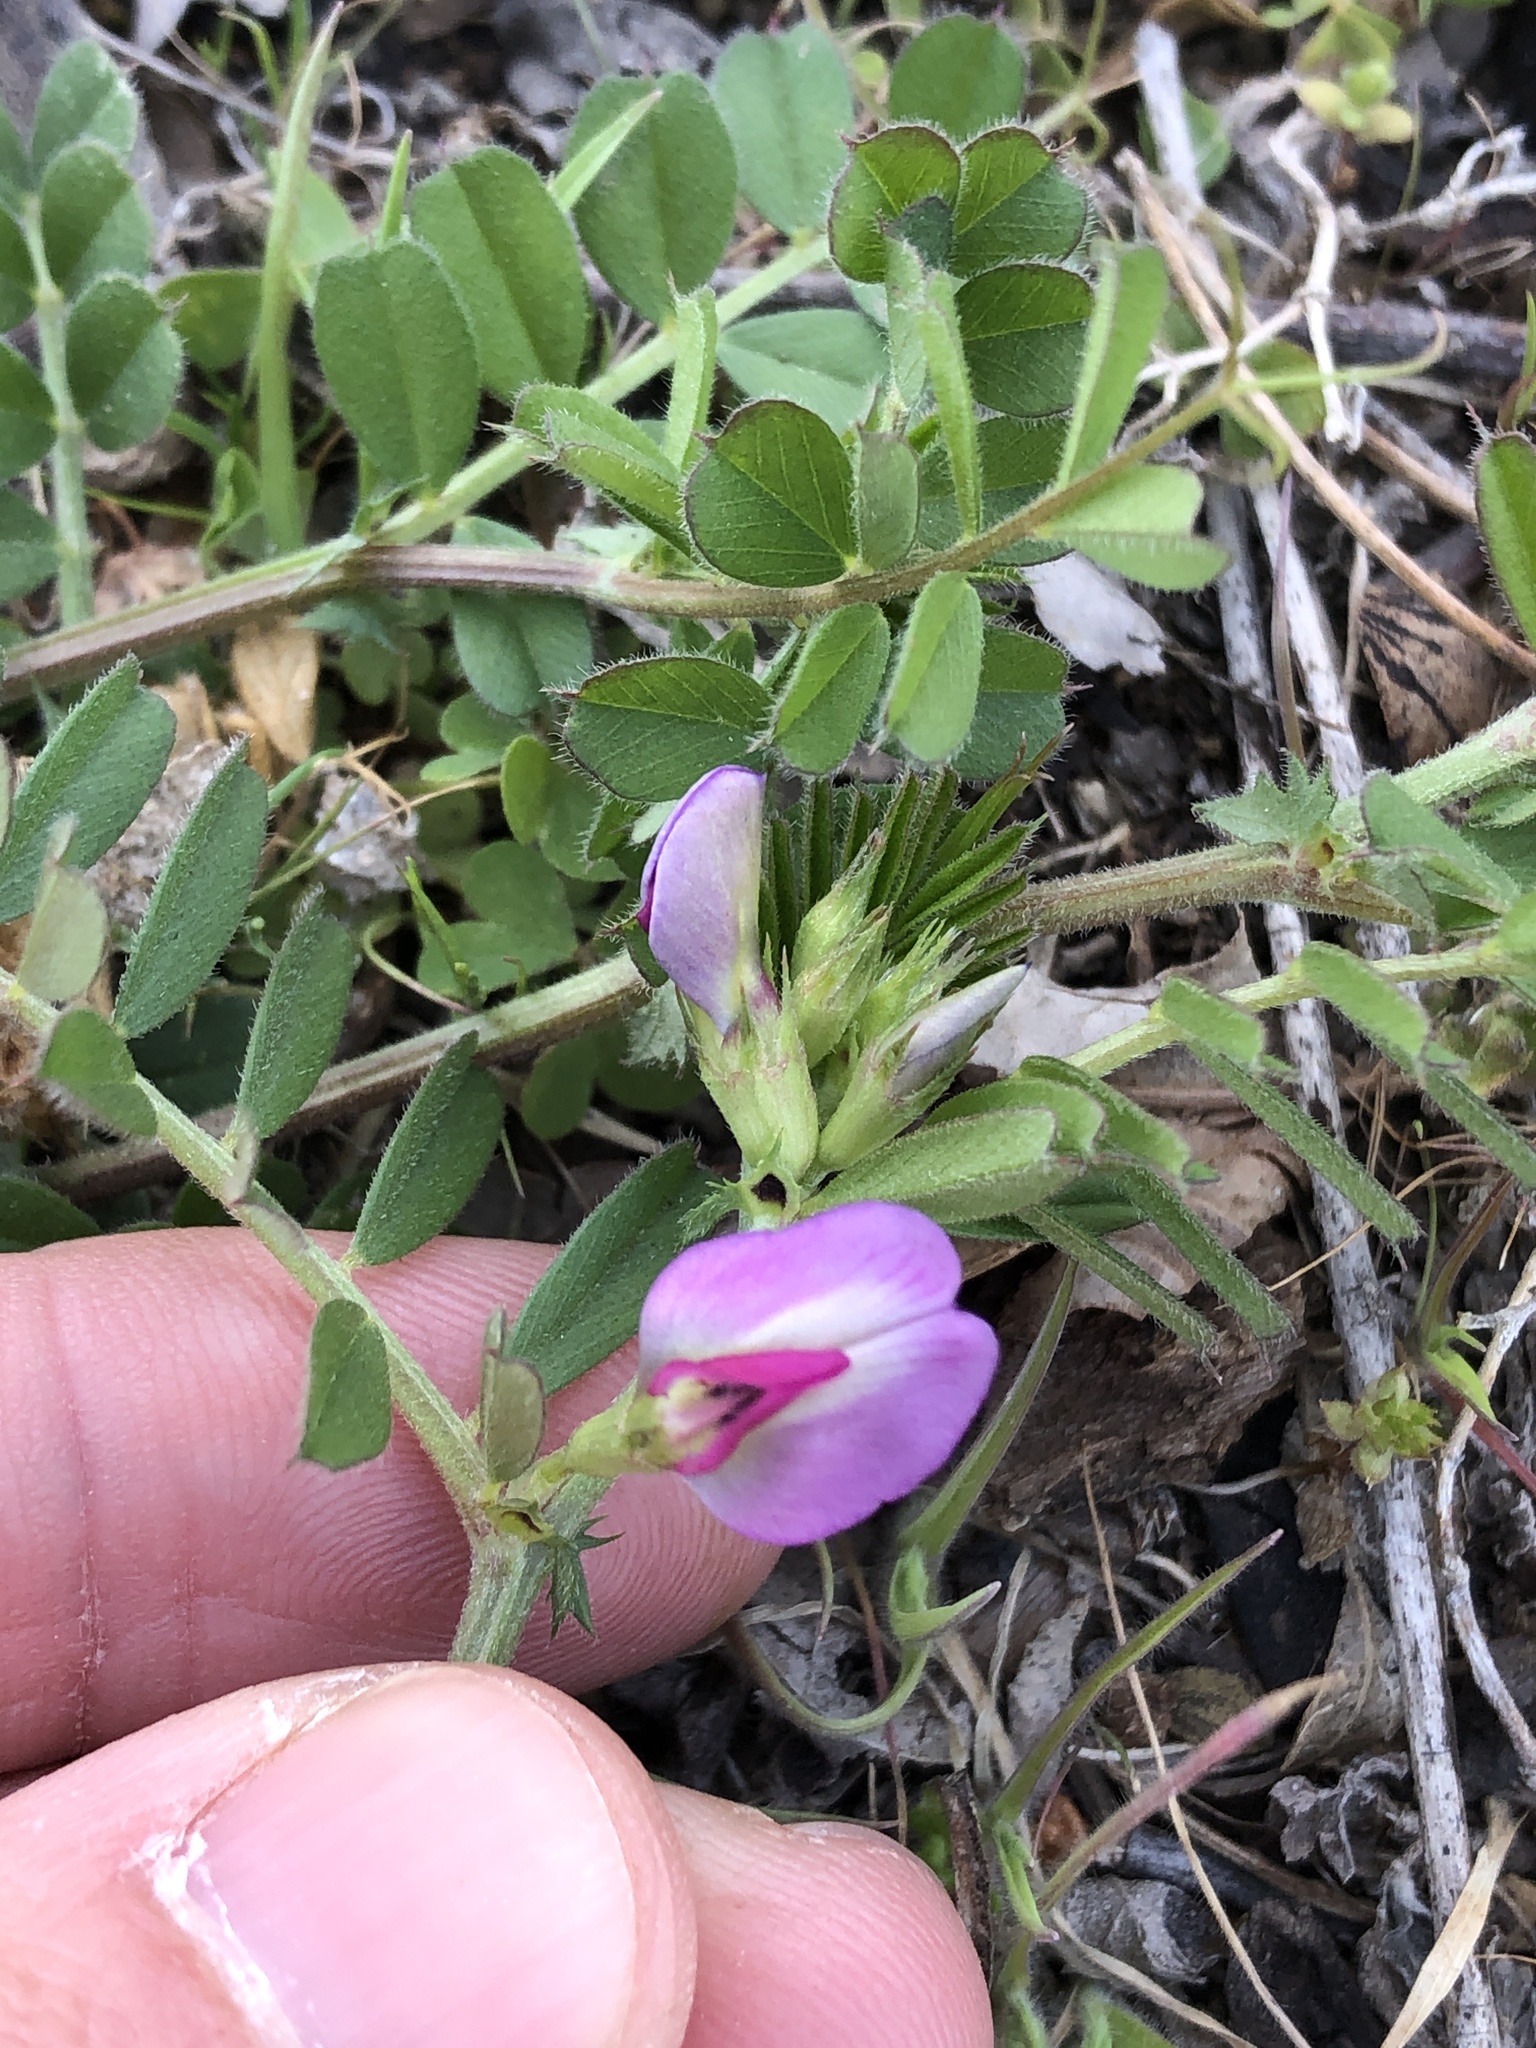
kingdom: Plantae
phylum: Tracheophyta
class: Magnoliopsida
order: Fabales
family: Fabaceae
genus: Vicia
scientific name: Vicia sativa
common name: Garden vetch
